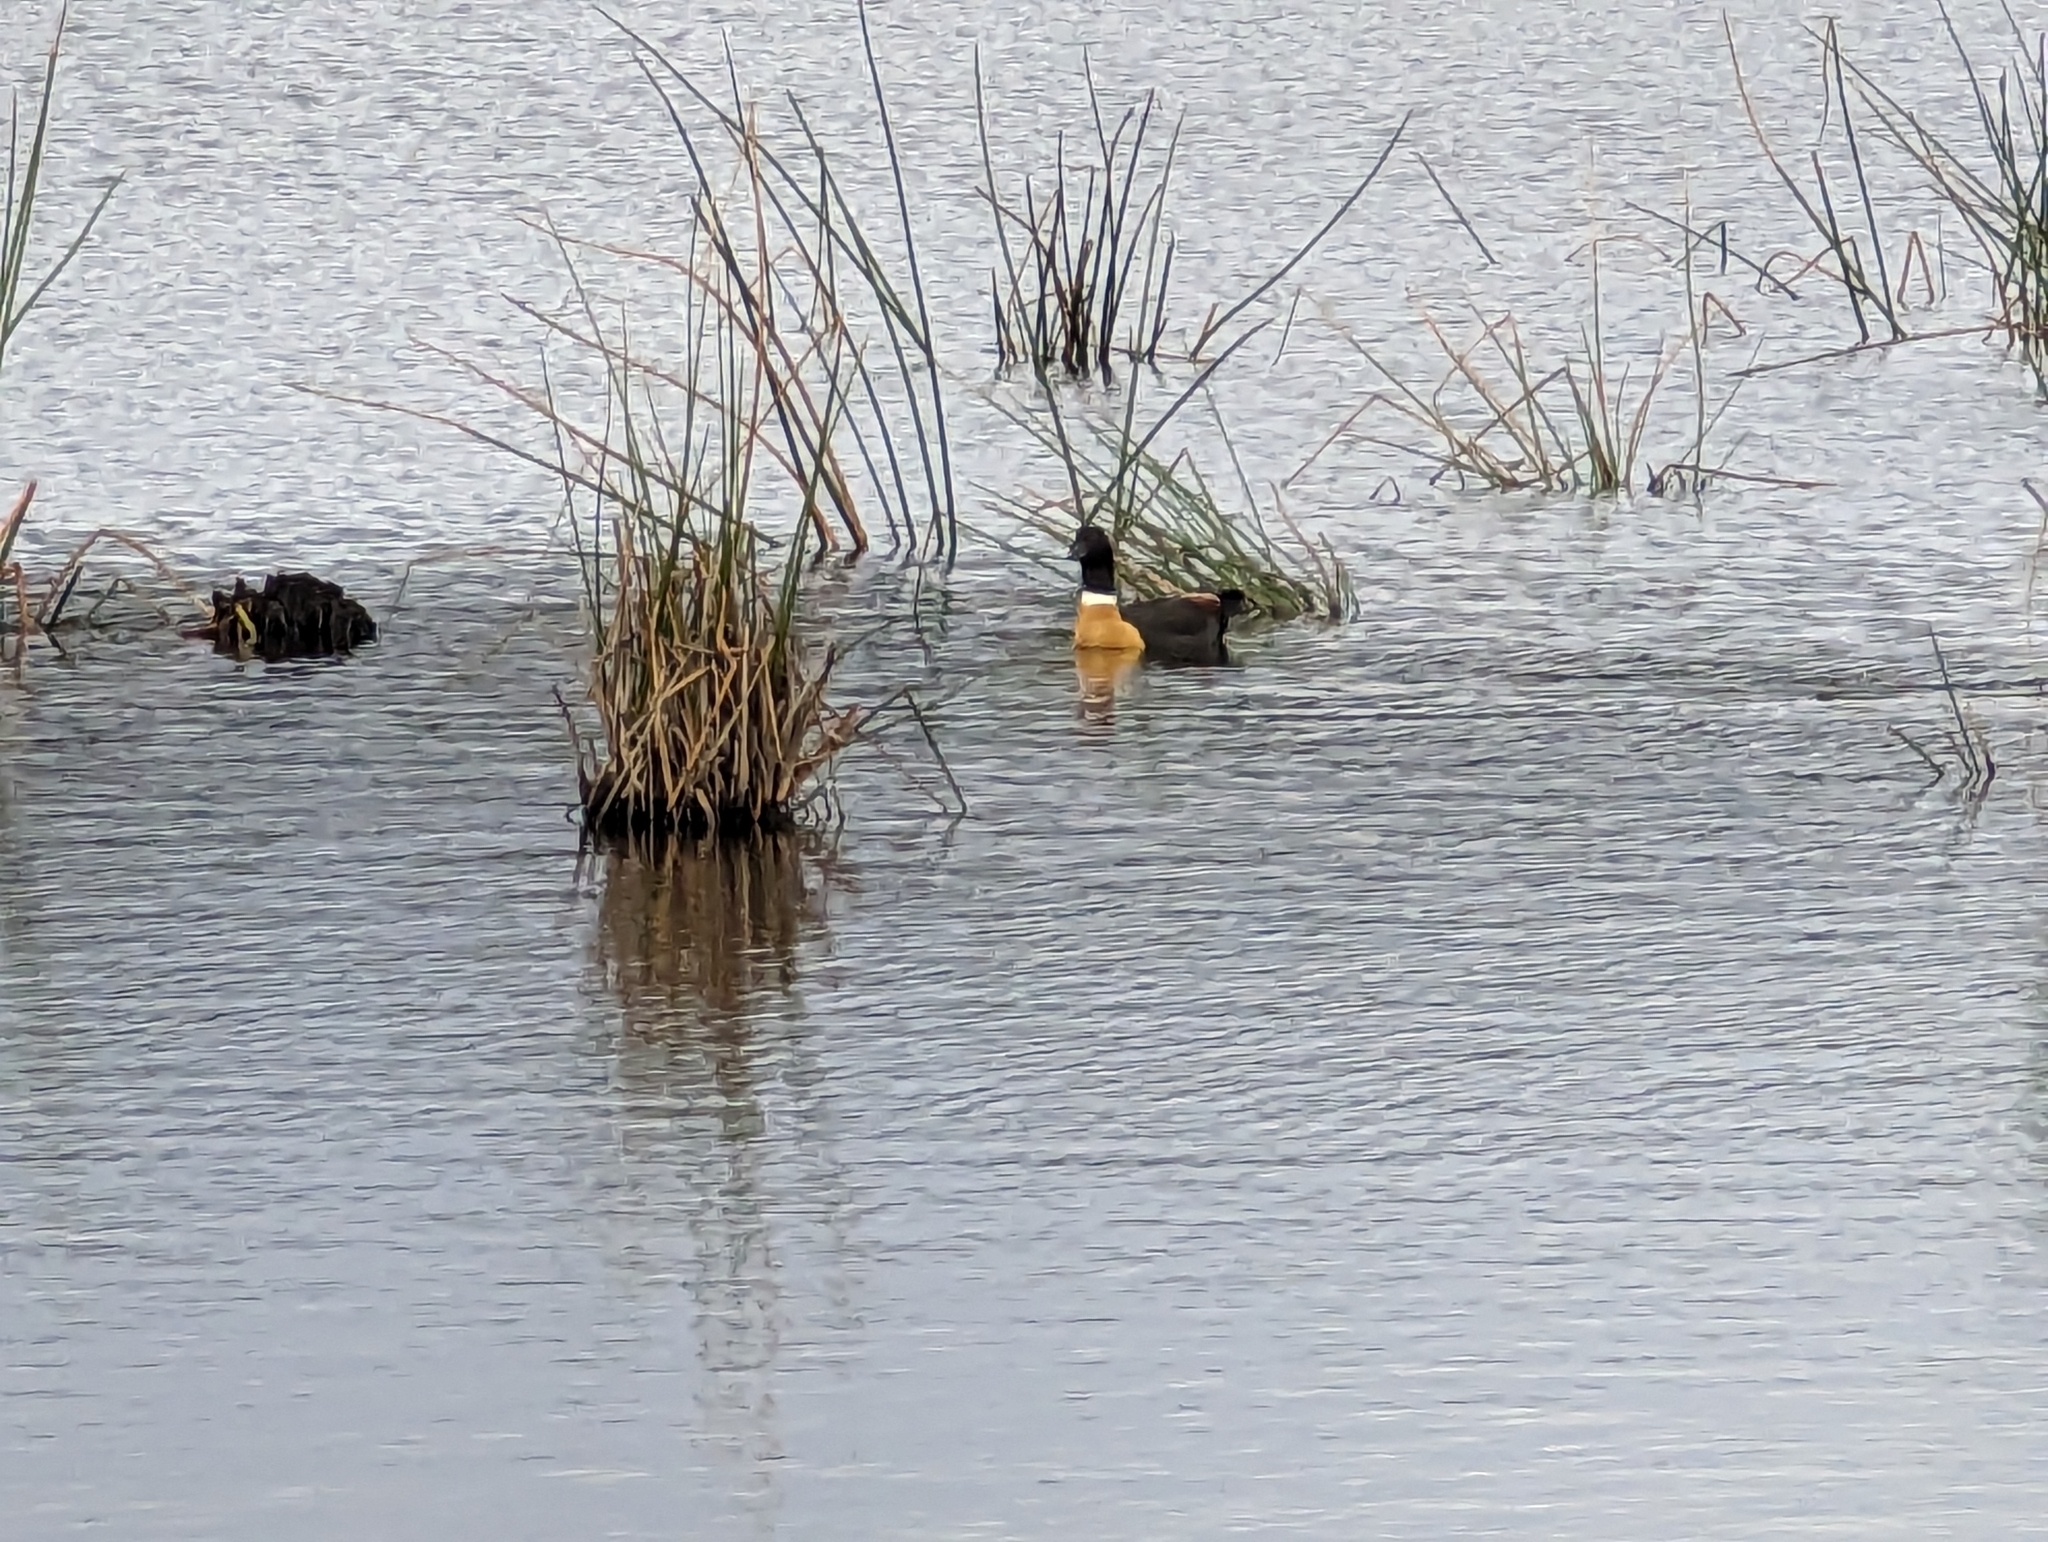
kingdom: Animalia
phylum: Chordata
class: Aves
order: Anseriformes
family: Anatidae
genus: Tadorna
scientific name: Tadorna tadornoides
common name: Australian shelduck
